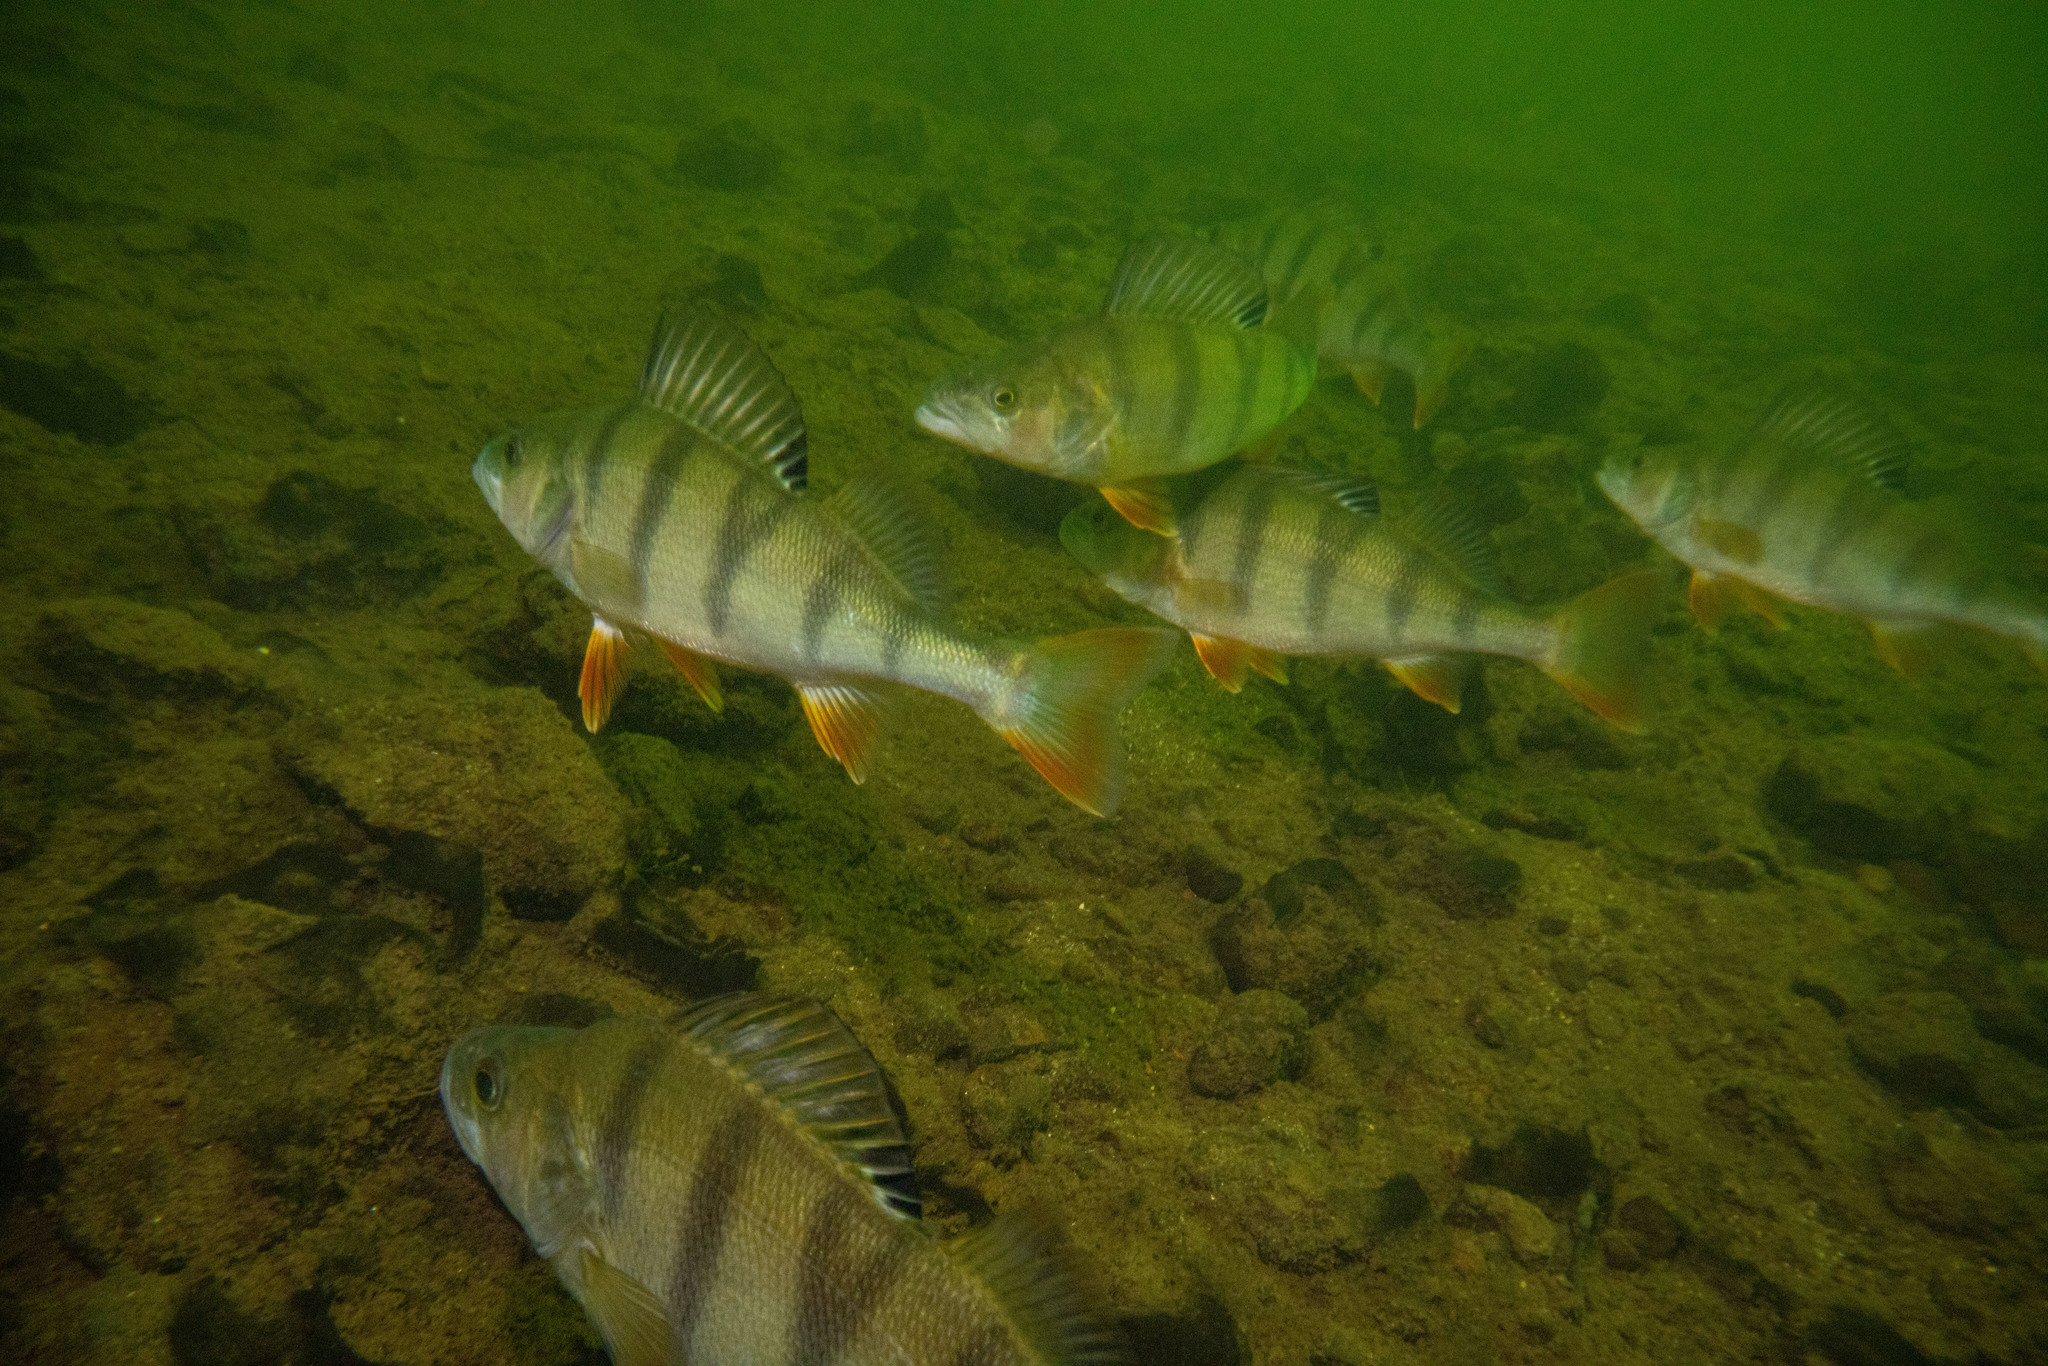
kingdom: Animalia
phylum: Chordata
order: Perciformes
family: Percidae
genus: Perca
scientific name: Perca fluviatilis
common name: Perch
